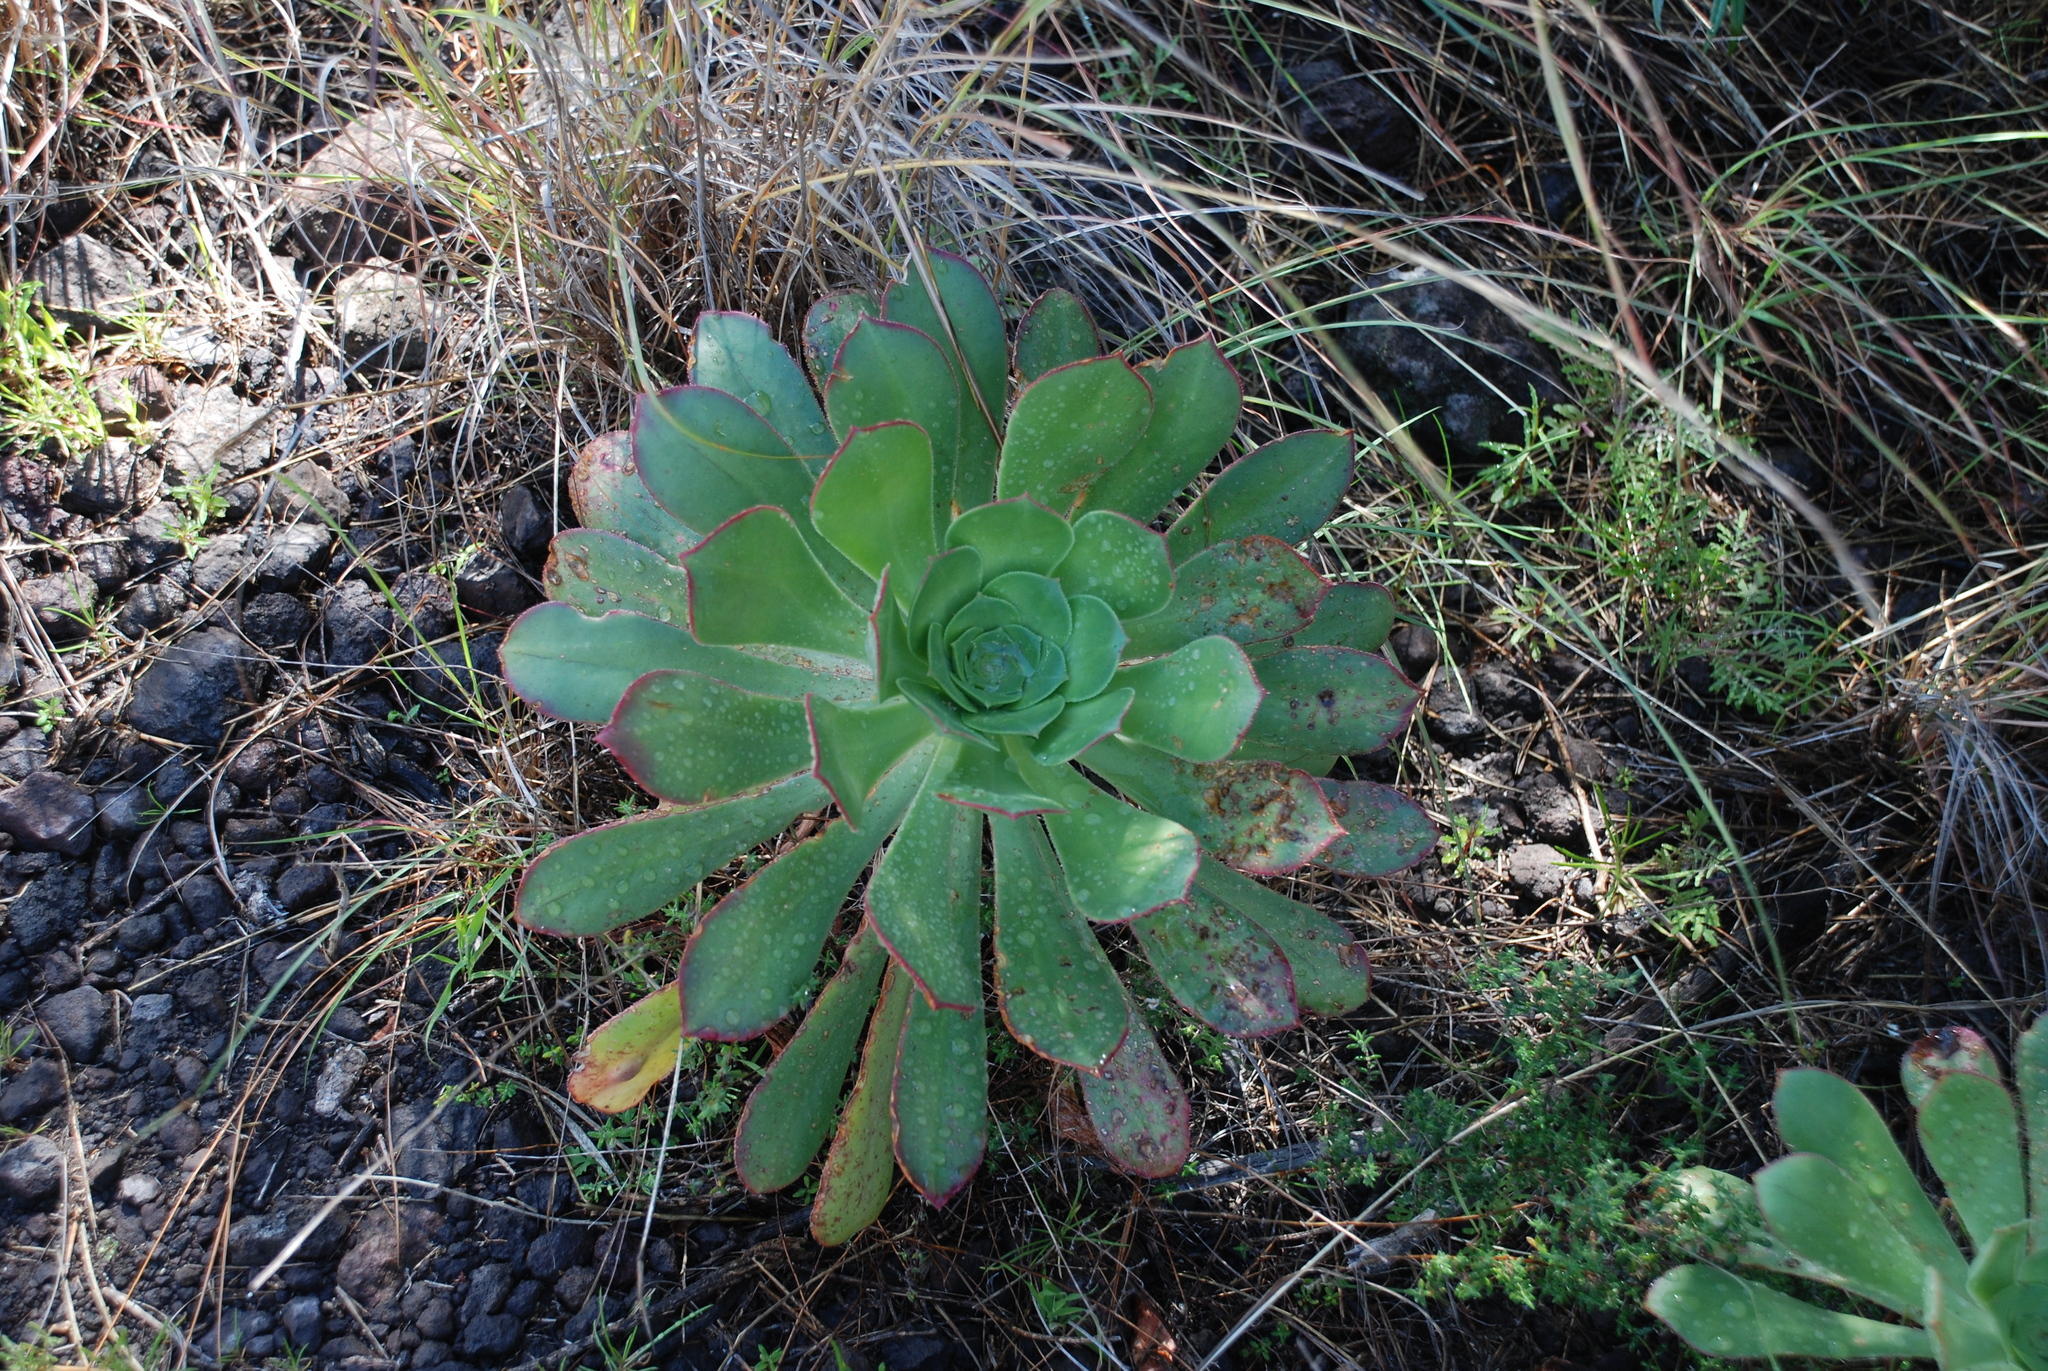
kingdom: Plantae
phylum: Tracheophyta
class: Magnoliopsida
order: Saxifragales
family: Crassulaceae
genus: Aeonium
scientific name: Aeonium urbicum
